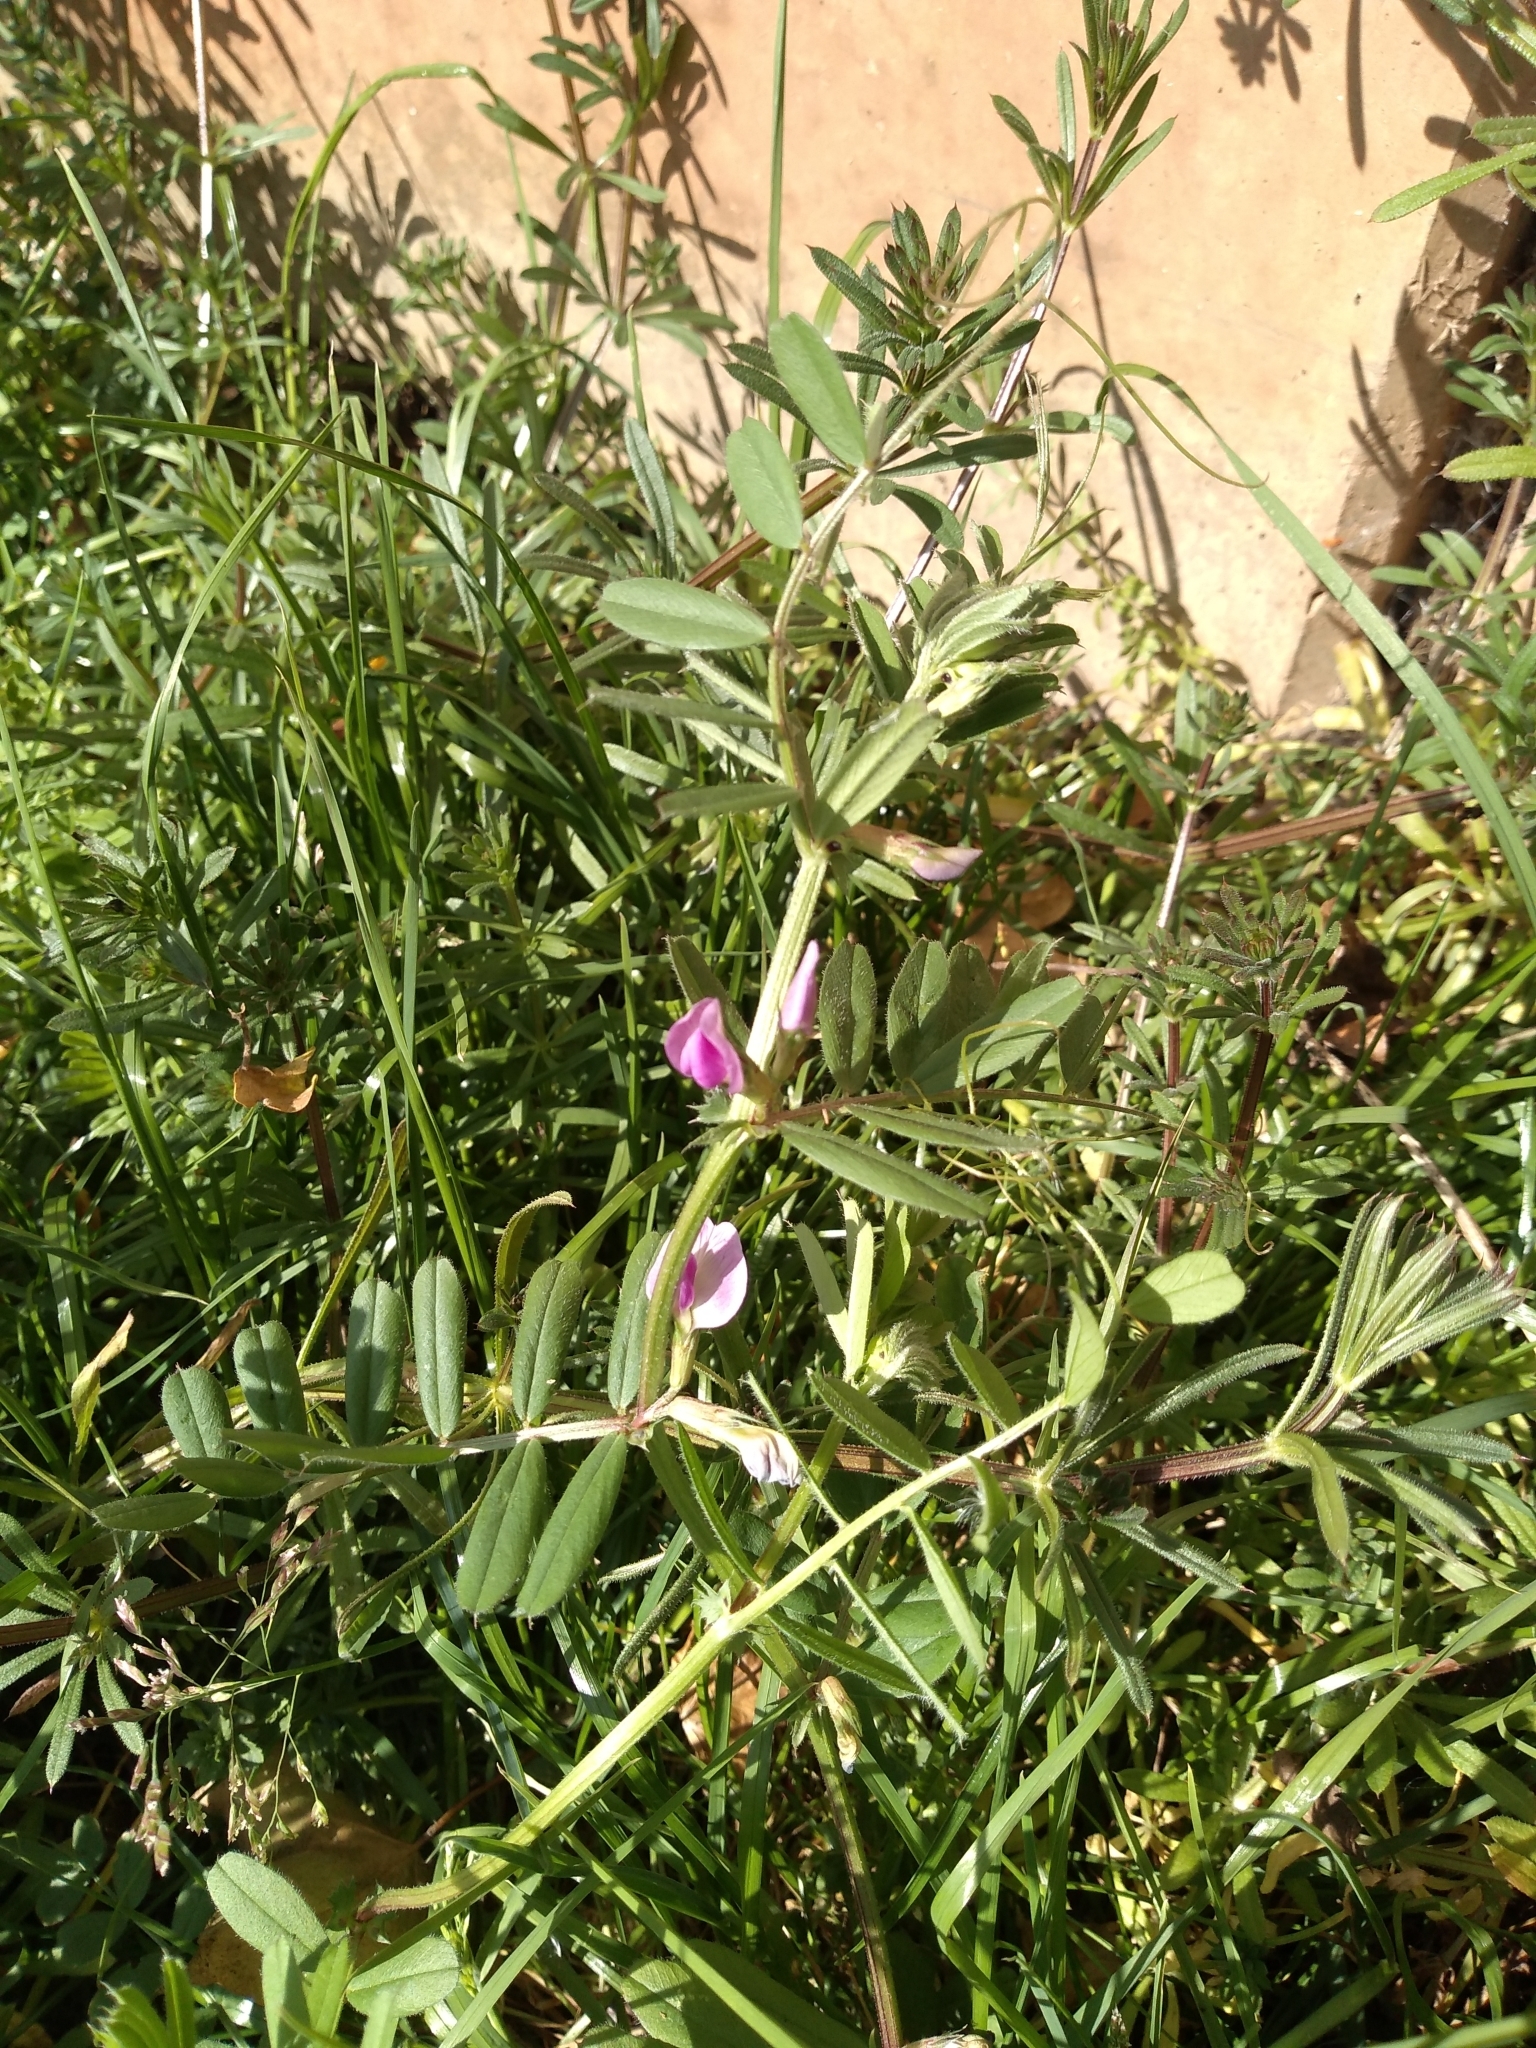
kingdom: Plantae
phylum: Tracheophyta
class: Magnoliopsida
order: Fabales
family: Fabaceae
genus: Vicia
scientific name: Vicia sativa
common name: Garden vetch
